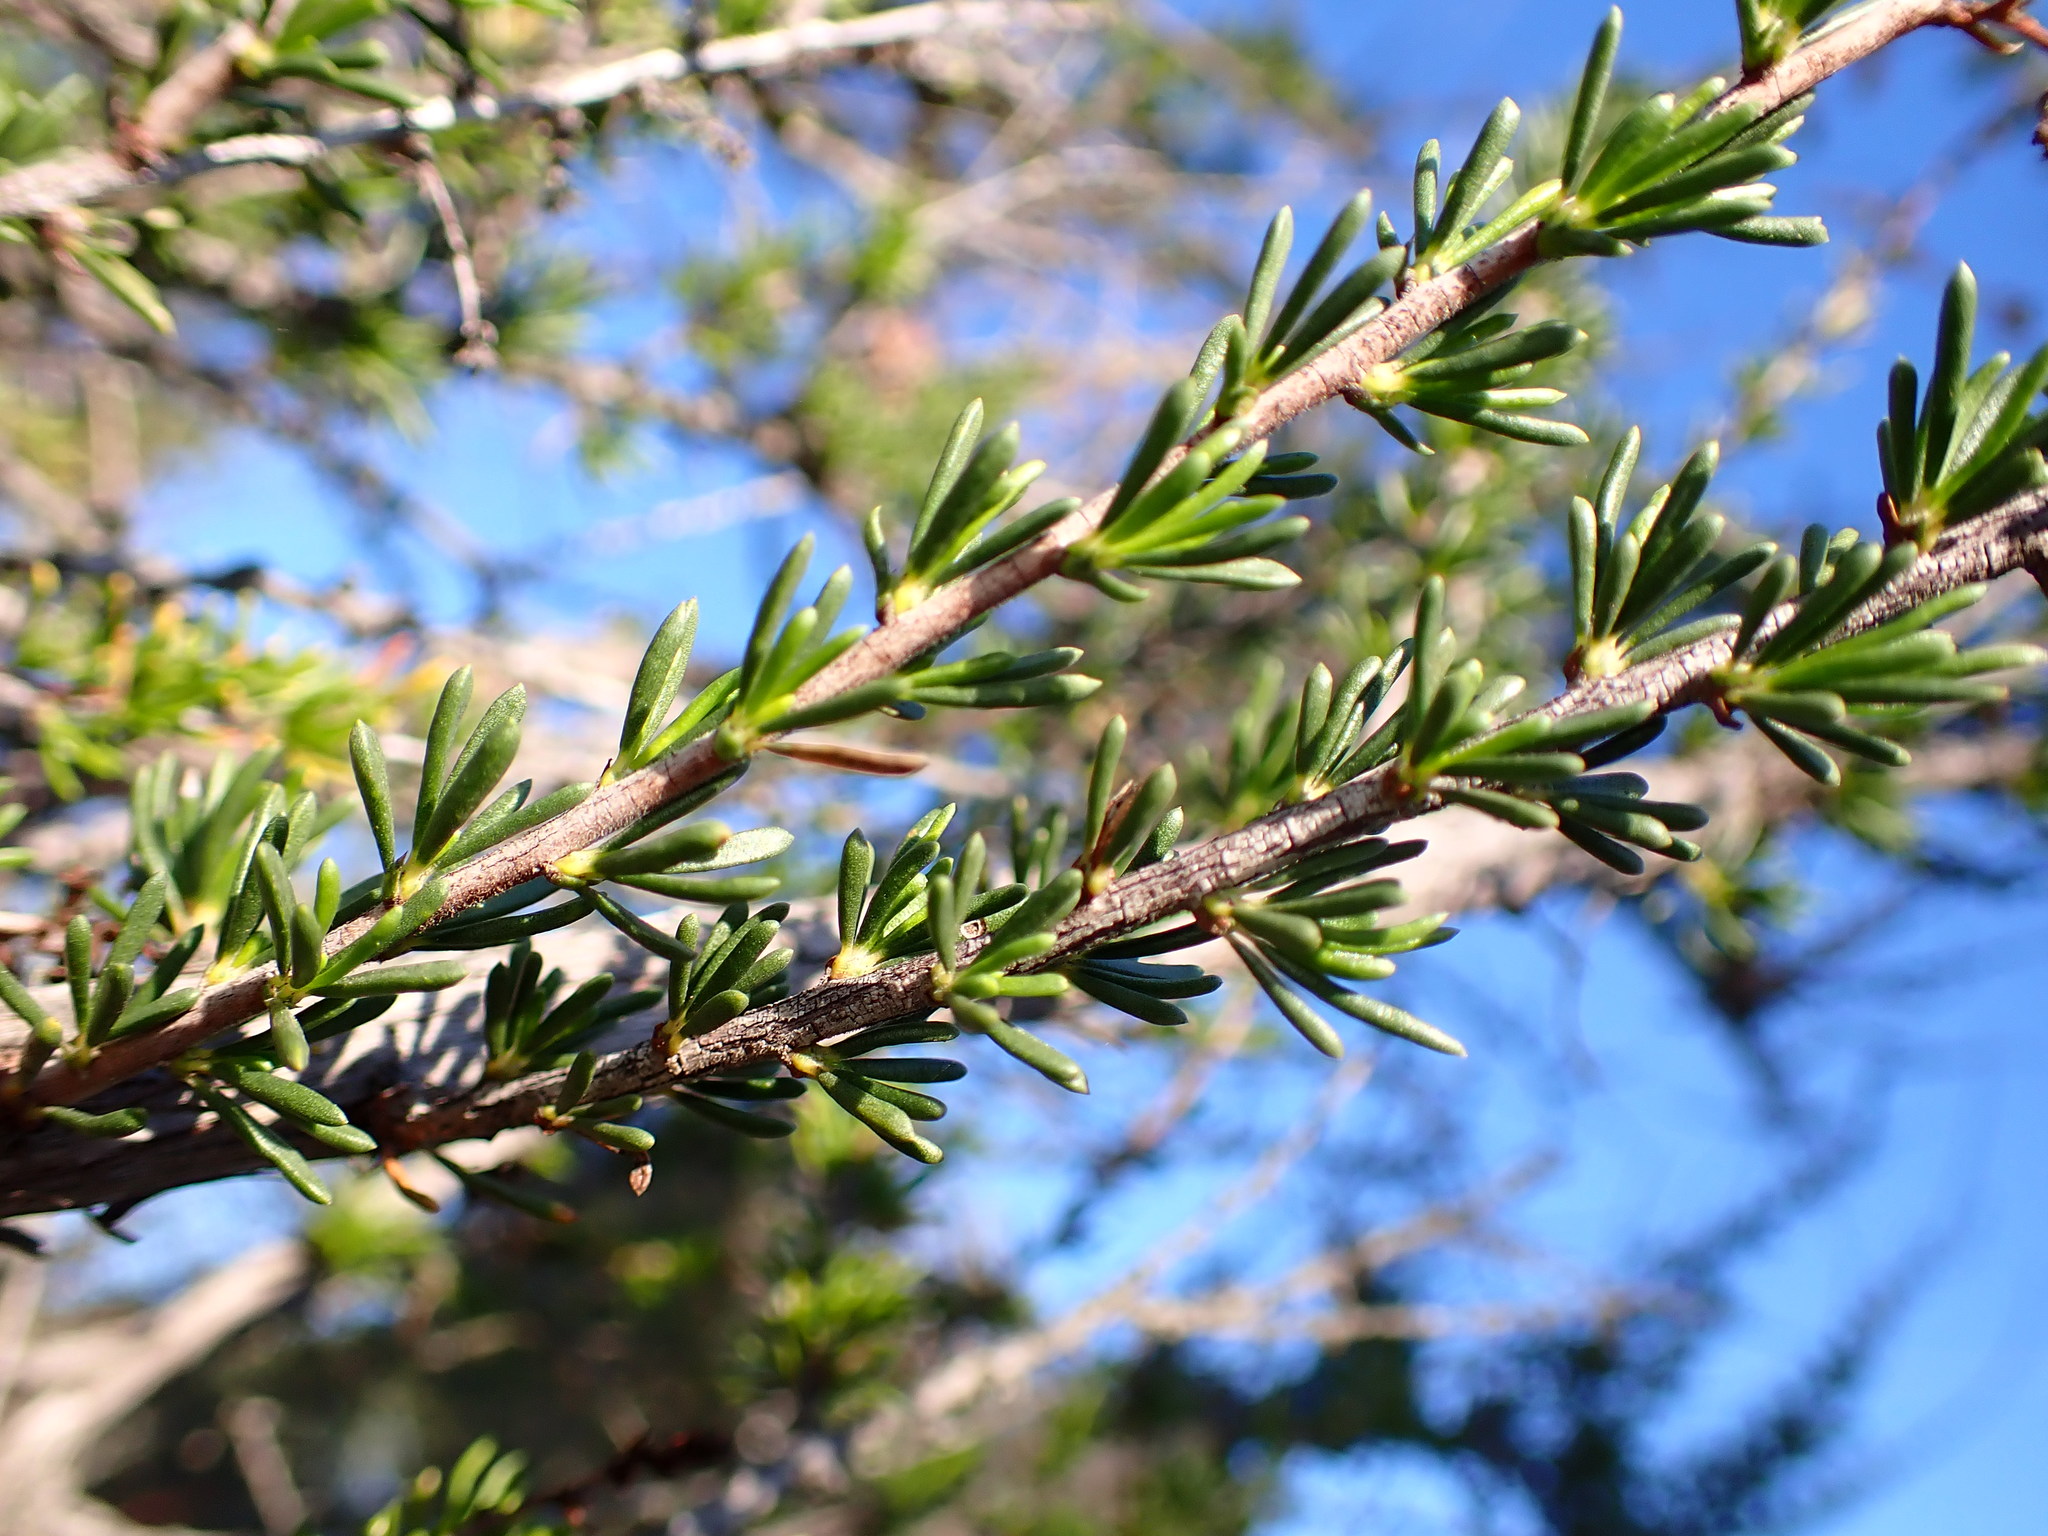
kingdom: Plantae
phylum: Tracheophyta
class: Magnoliopsida
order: Rosales
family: Rosaceae
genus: Adenostoma
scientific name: Adenostoma fasciculatum
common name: Chamise
